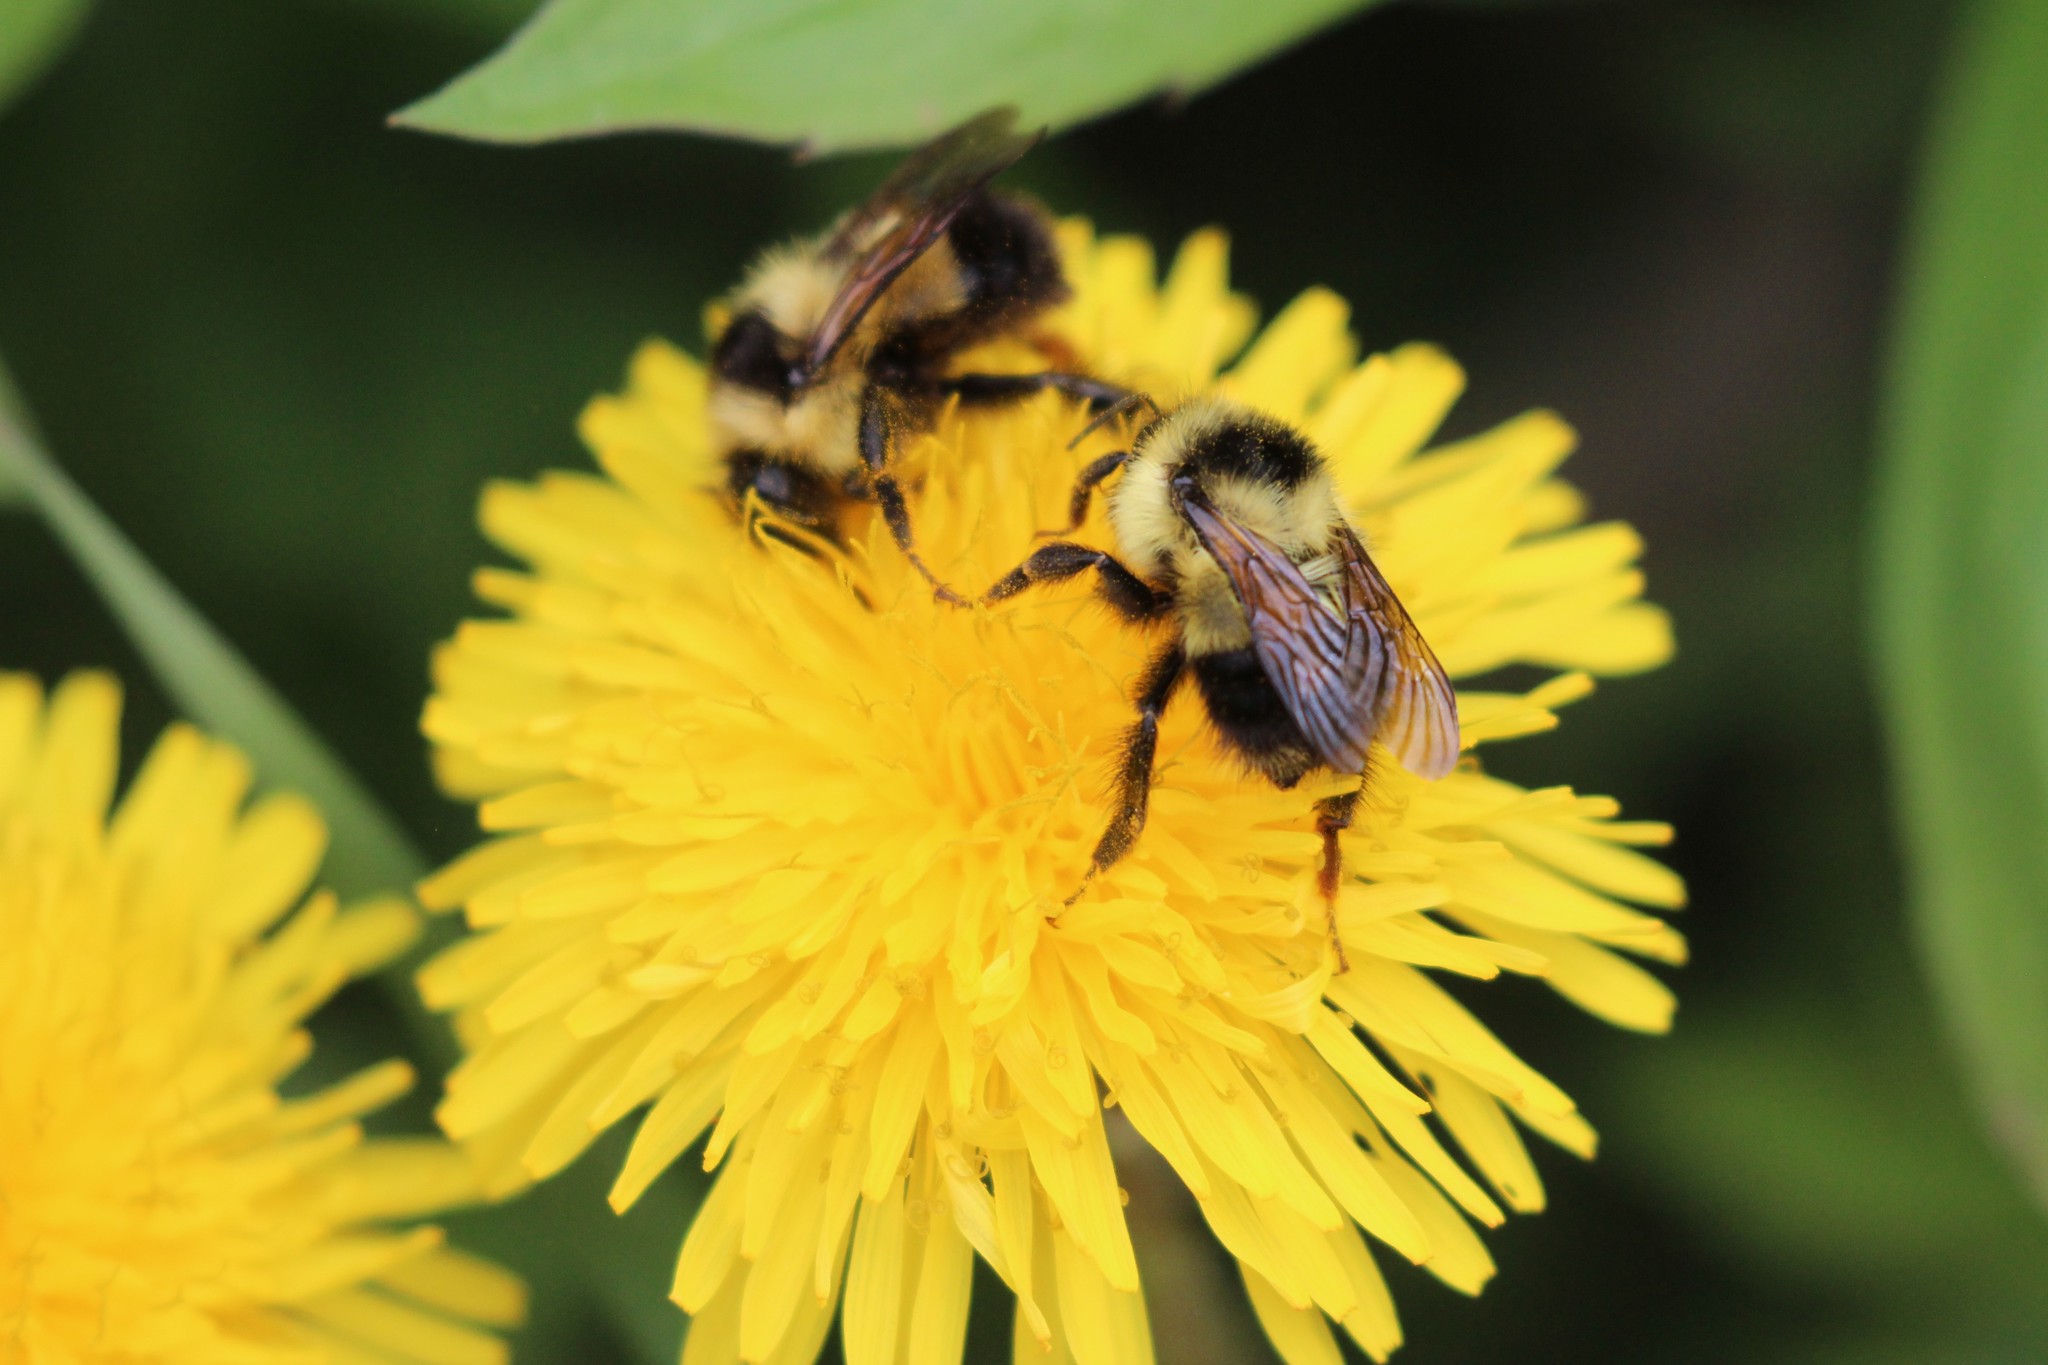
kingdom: Animalia
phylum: Arthropoda
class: Insecta
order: Hymenoptera
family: Apidae
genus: Bombus
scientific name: Bombus sandersoni
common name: Sanderson bumble bee
